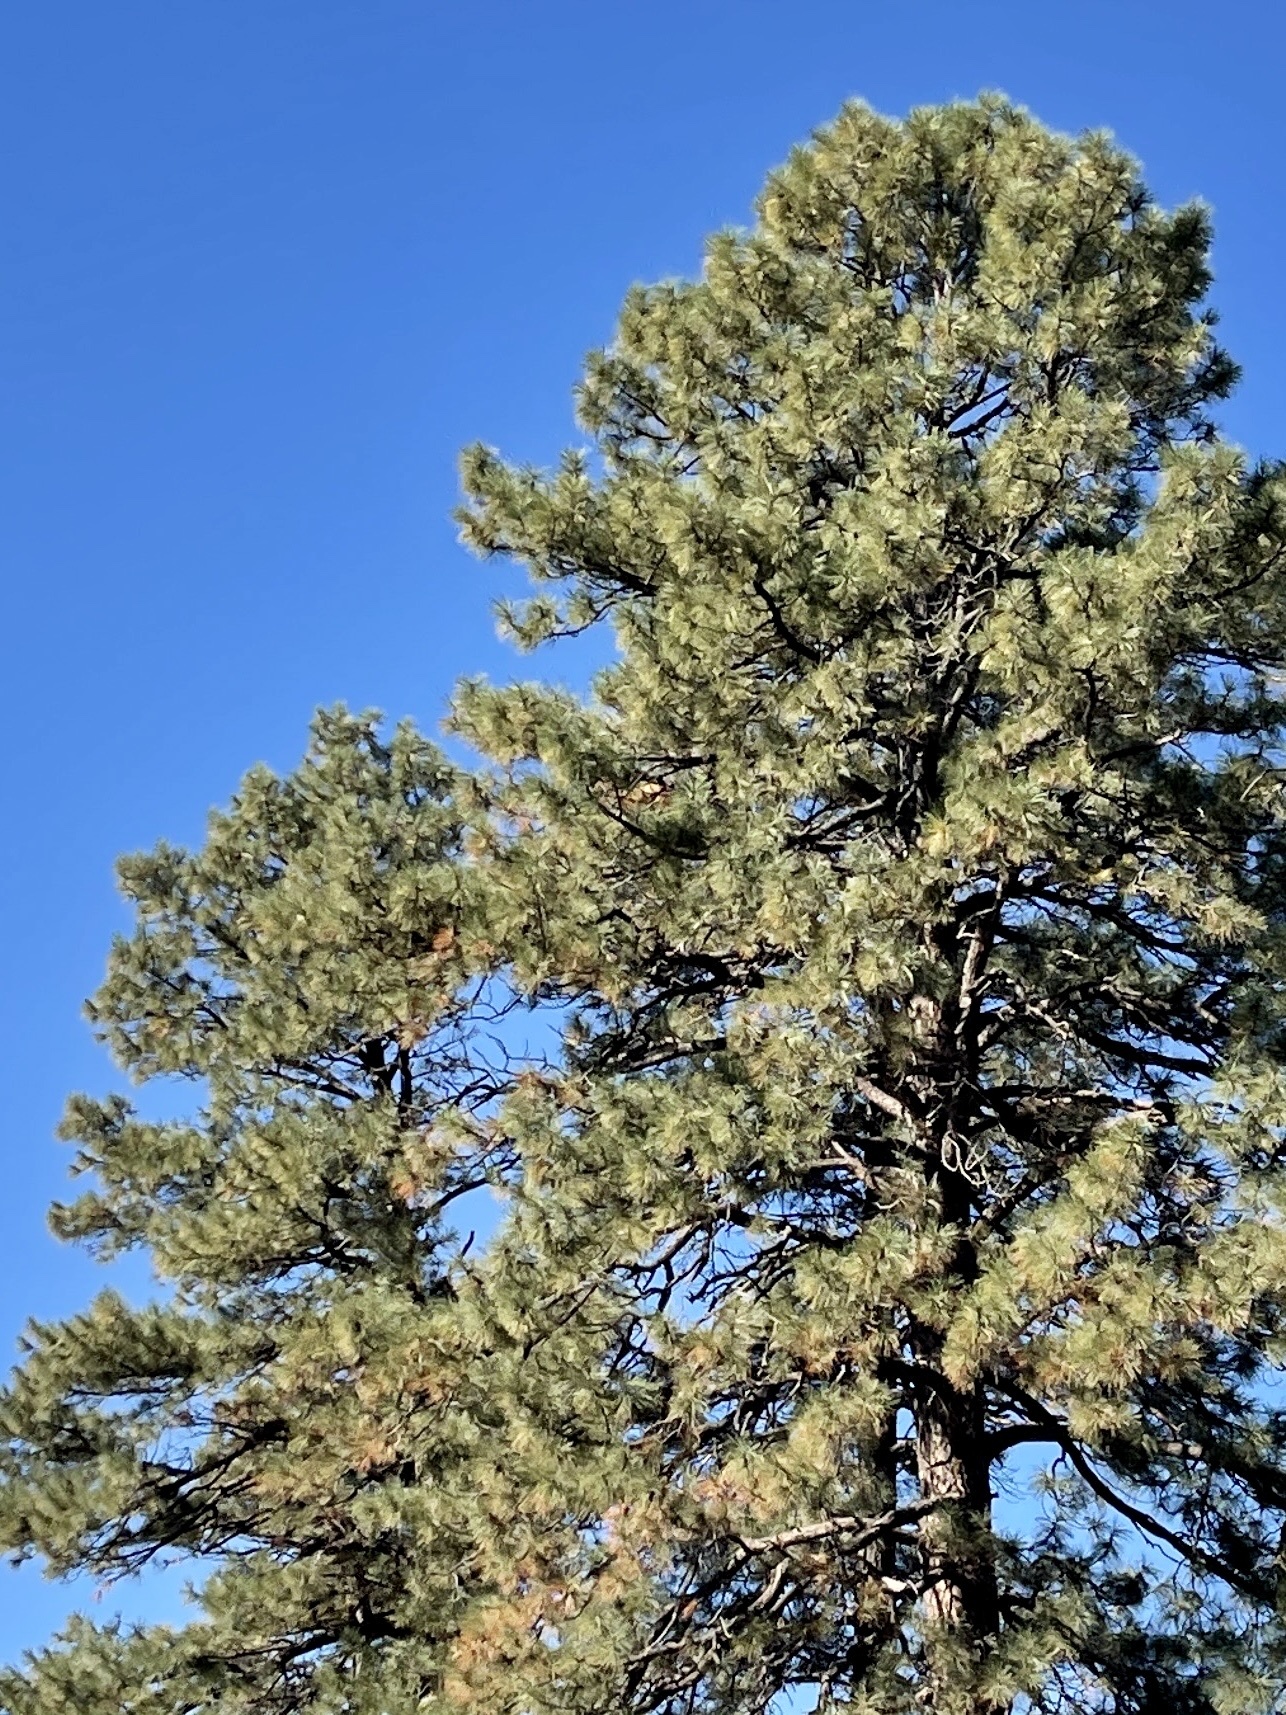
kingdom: Plantae
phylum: Tracheophyta
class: Pinopsida
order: Pinales
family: Pinaceae
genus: Pinus
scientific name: Pinus ponderosa
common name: Western yellow-pine
